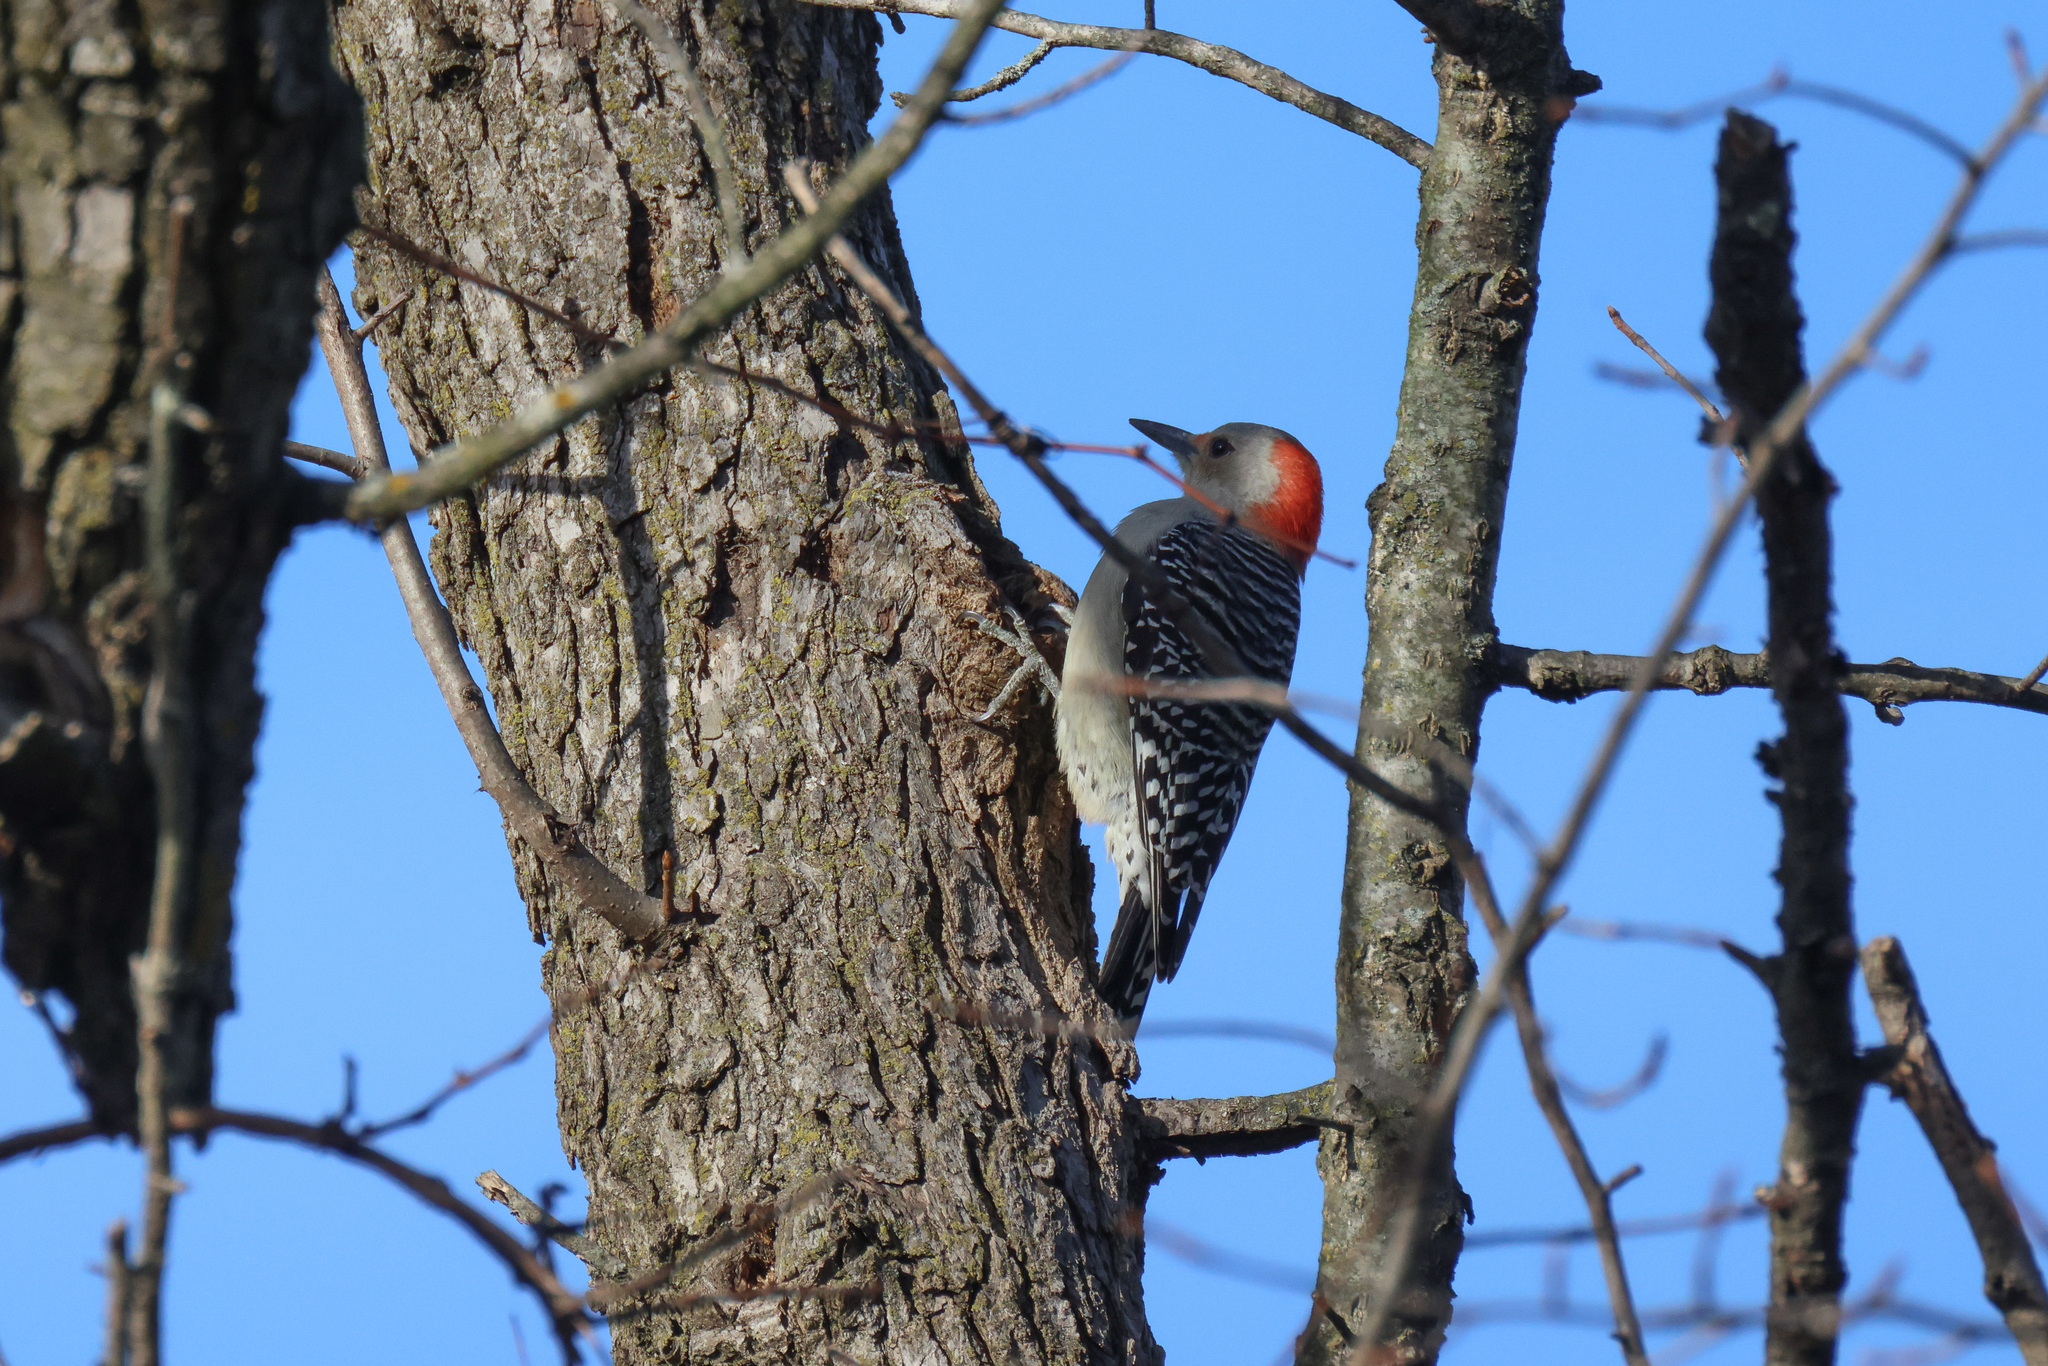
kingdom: Animalia
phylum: Chordata
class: Aves
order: Piciformes
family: Picidae
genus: Melanerpes
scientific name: Melanerpes carolinus
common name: Red-bellied woodpecker
